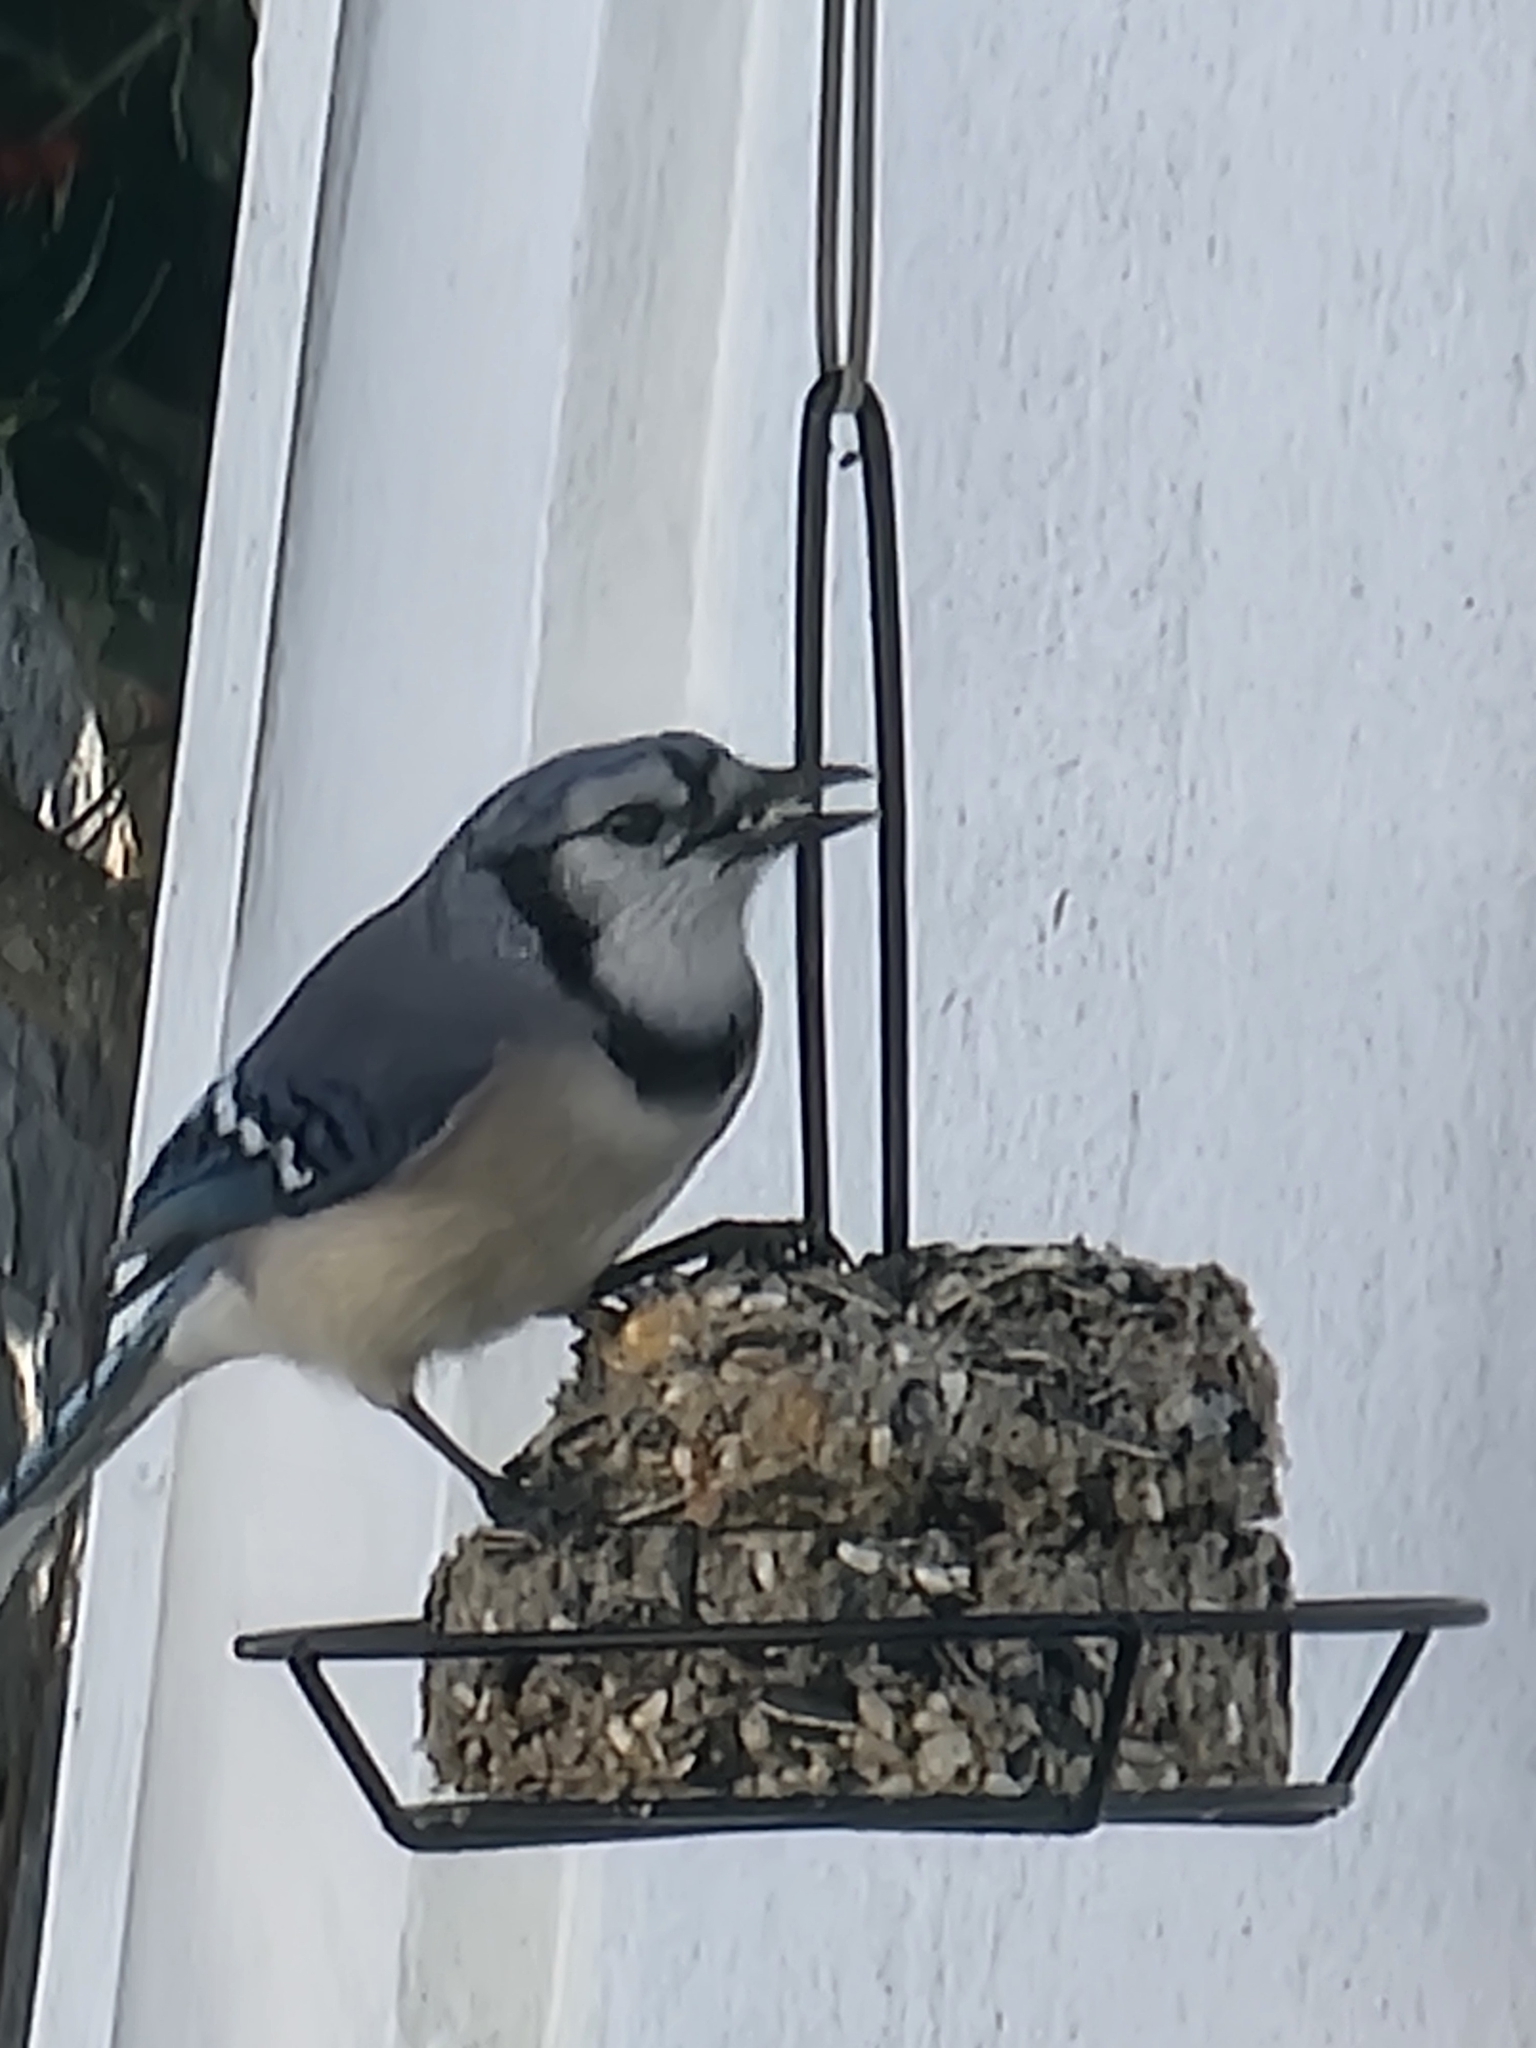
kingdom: Animalia
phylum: Chordata
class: Aves
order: Passeriformes
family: Corvidae
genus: Cyanocitta
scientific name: Cyanocitta cristata
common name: Blue jay
